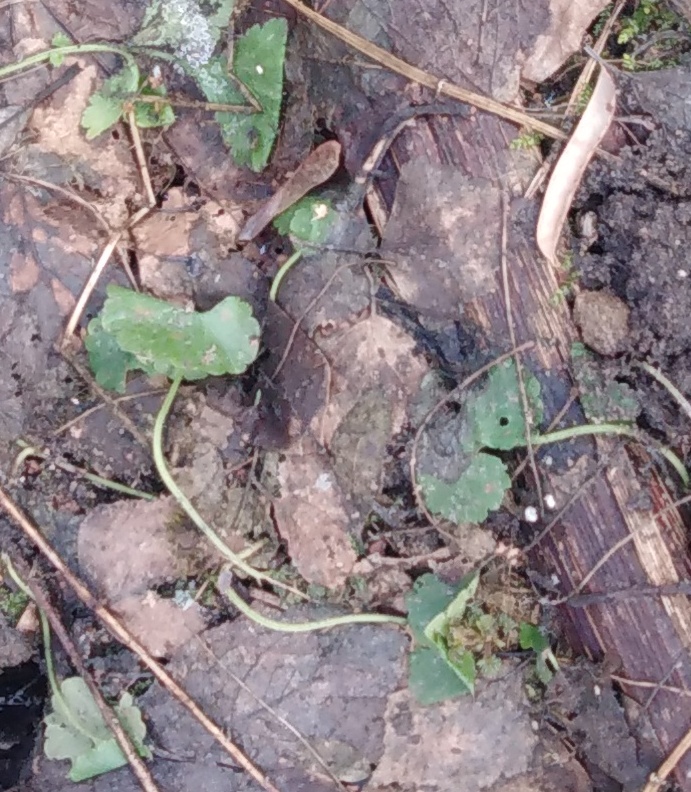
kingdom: Plantae
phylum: Tracheophyta
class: Magnoliopsida
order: Lamiales
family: Lamiaceae
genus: Glechoma
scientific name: Glechoma hederacea
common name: Ground ivy
